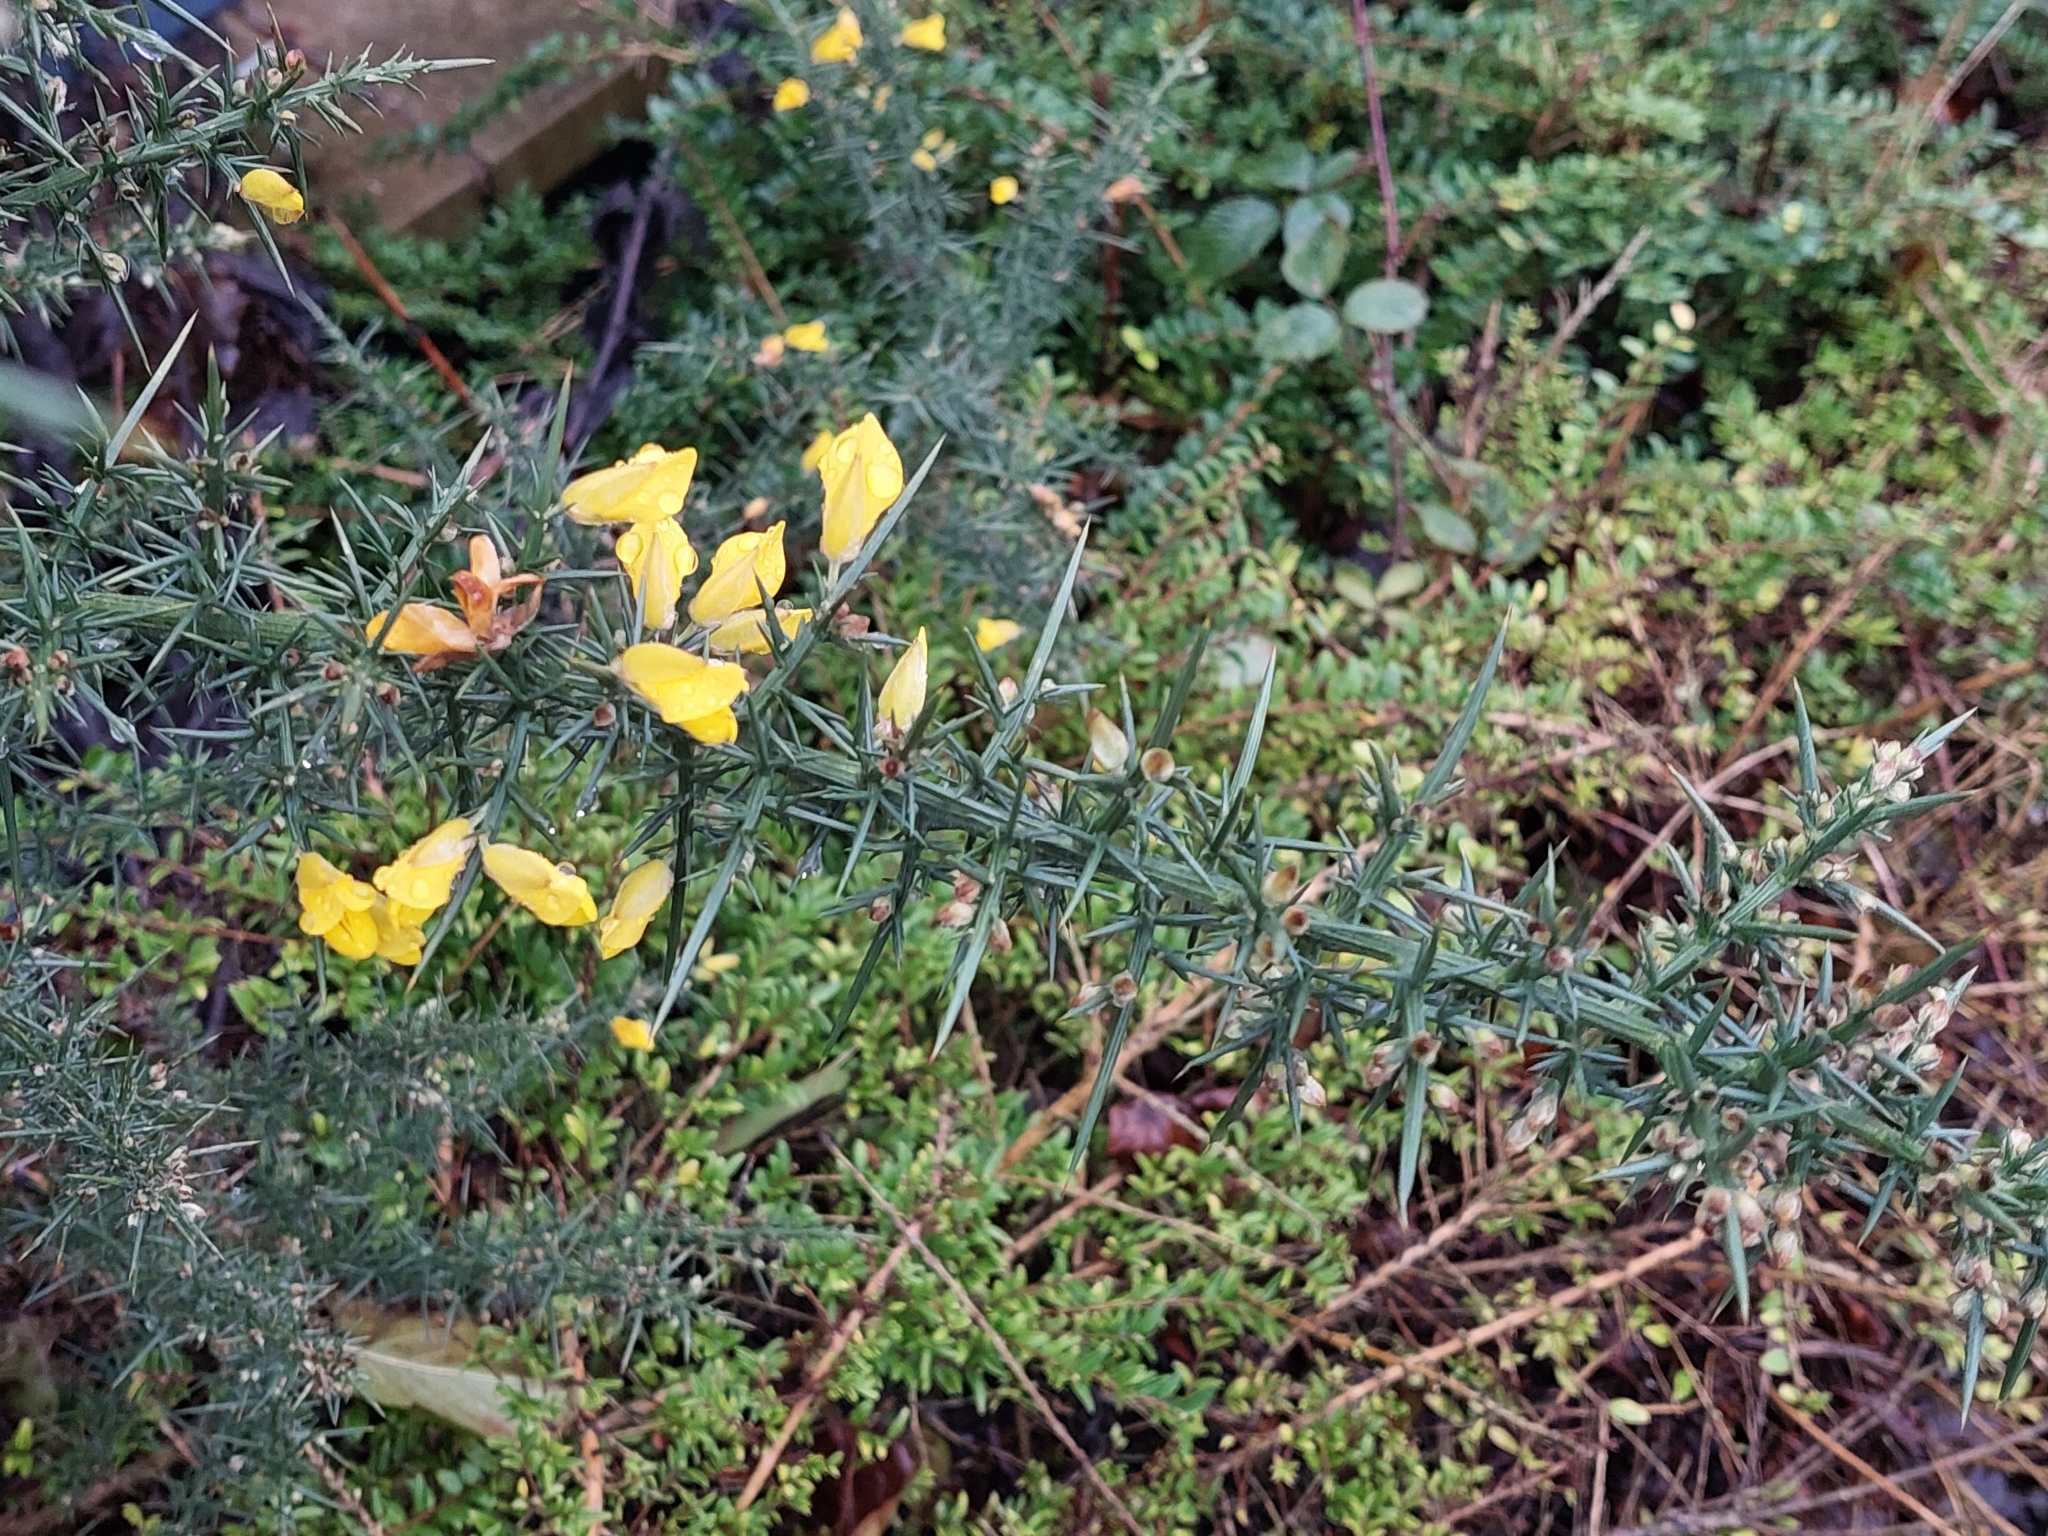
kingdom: Plantae
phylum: Tracheophyta
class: Magnoliopsida
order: Fabales
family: Fabaceae
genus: Ulex
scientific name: Ulex europaeus
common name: Common gorse
